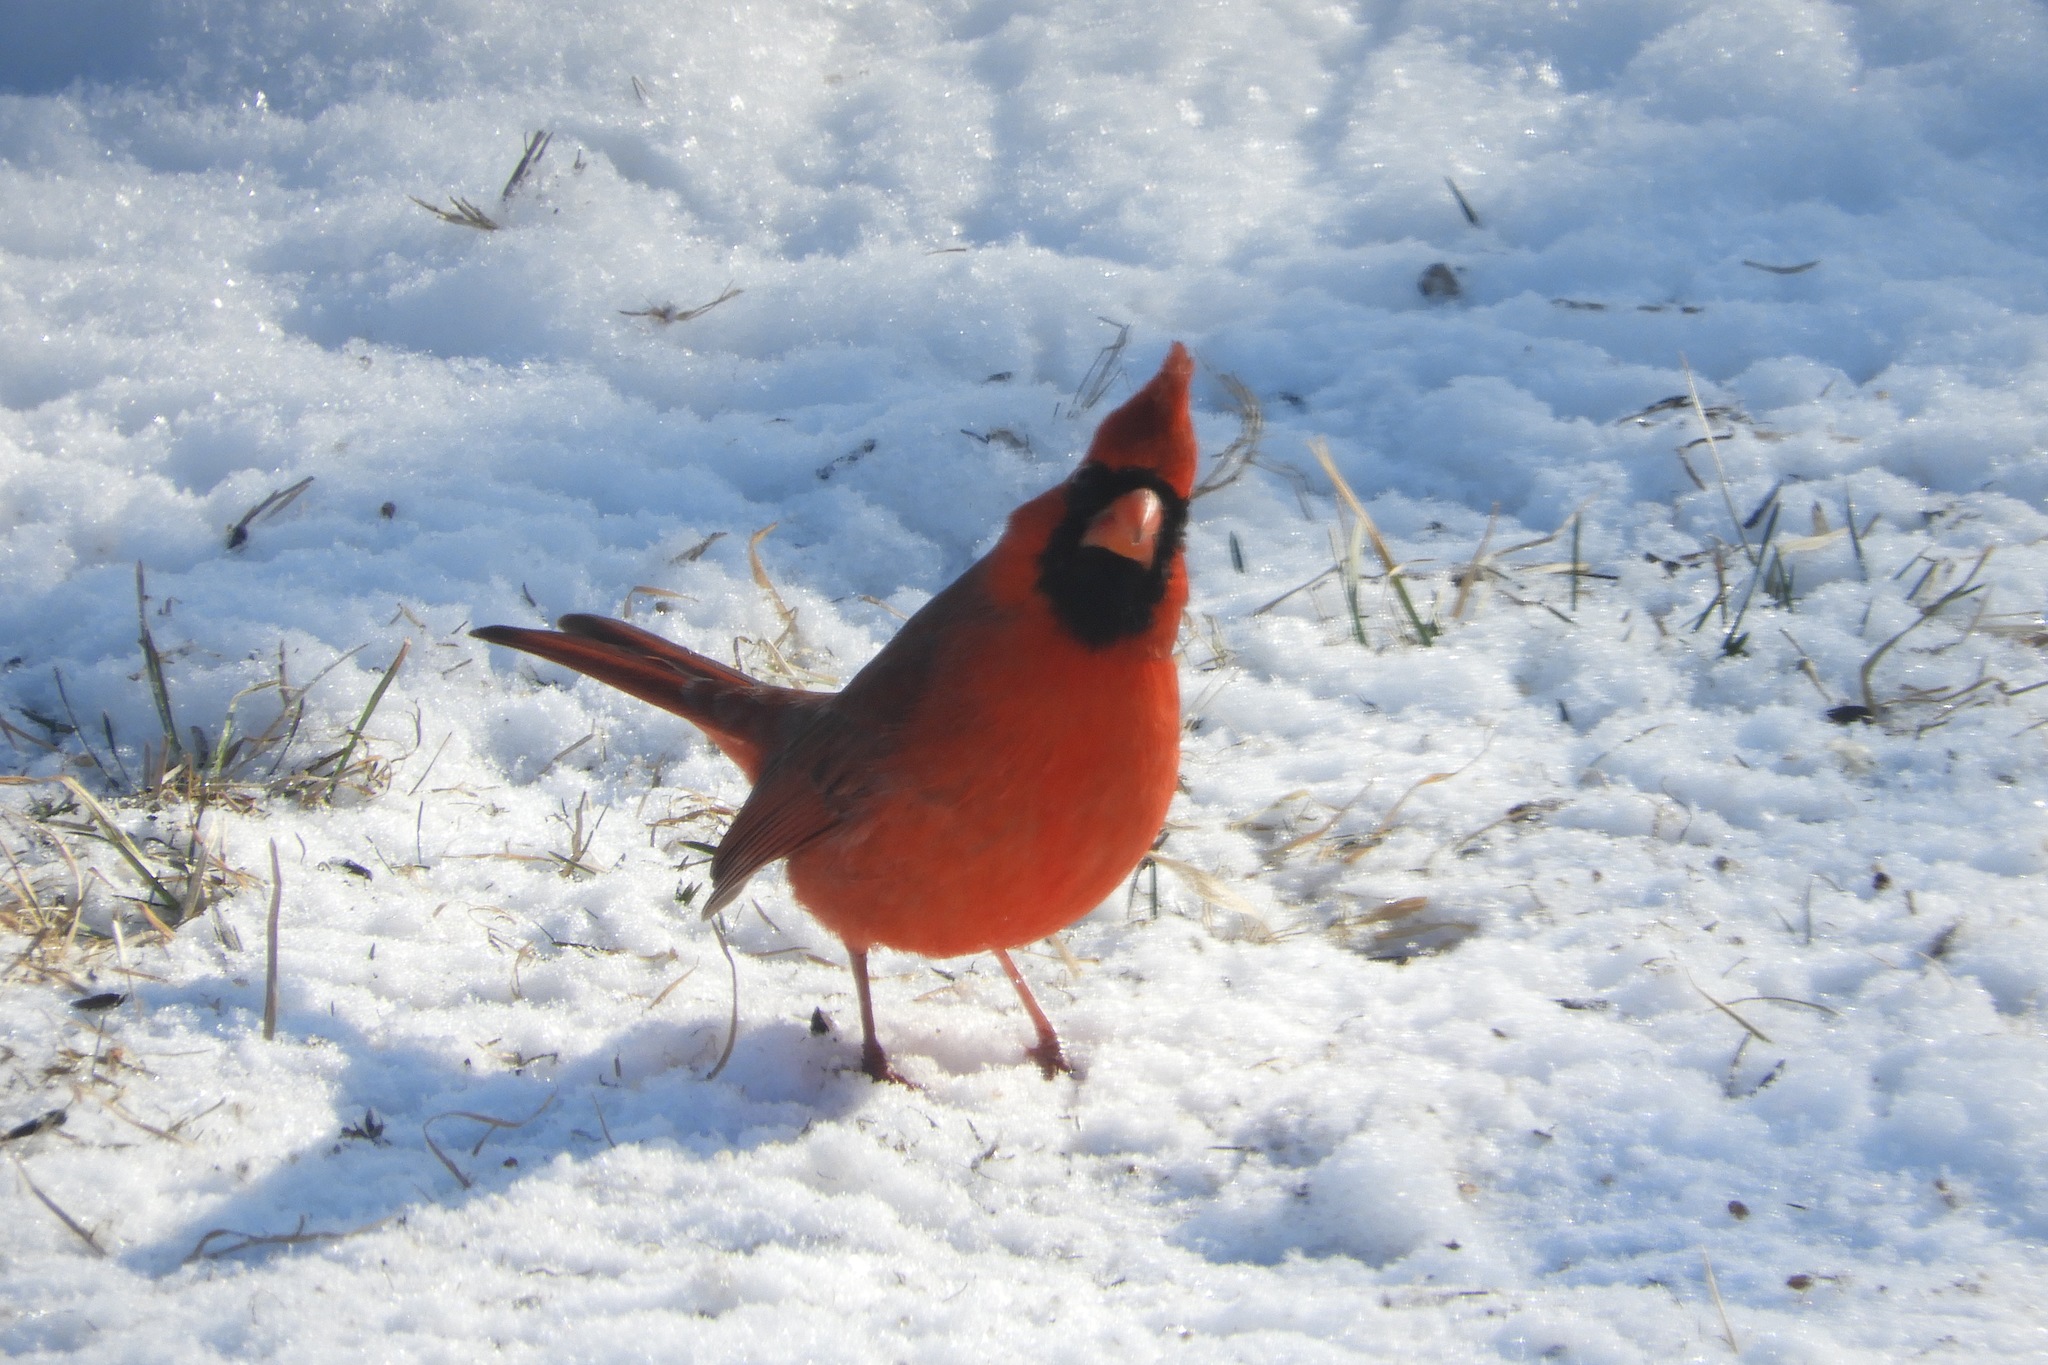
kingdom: Animalia
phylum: Chordata
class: Aves
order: Passeriformes
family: Cardinalidae
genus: Cardinalis
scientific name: Cardinalis cardinalis
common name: Northern cardinal
